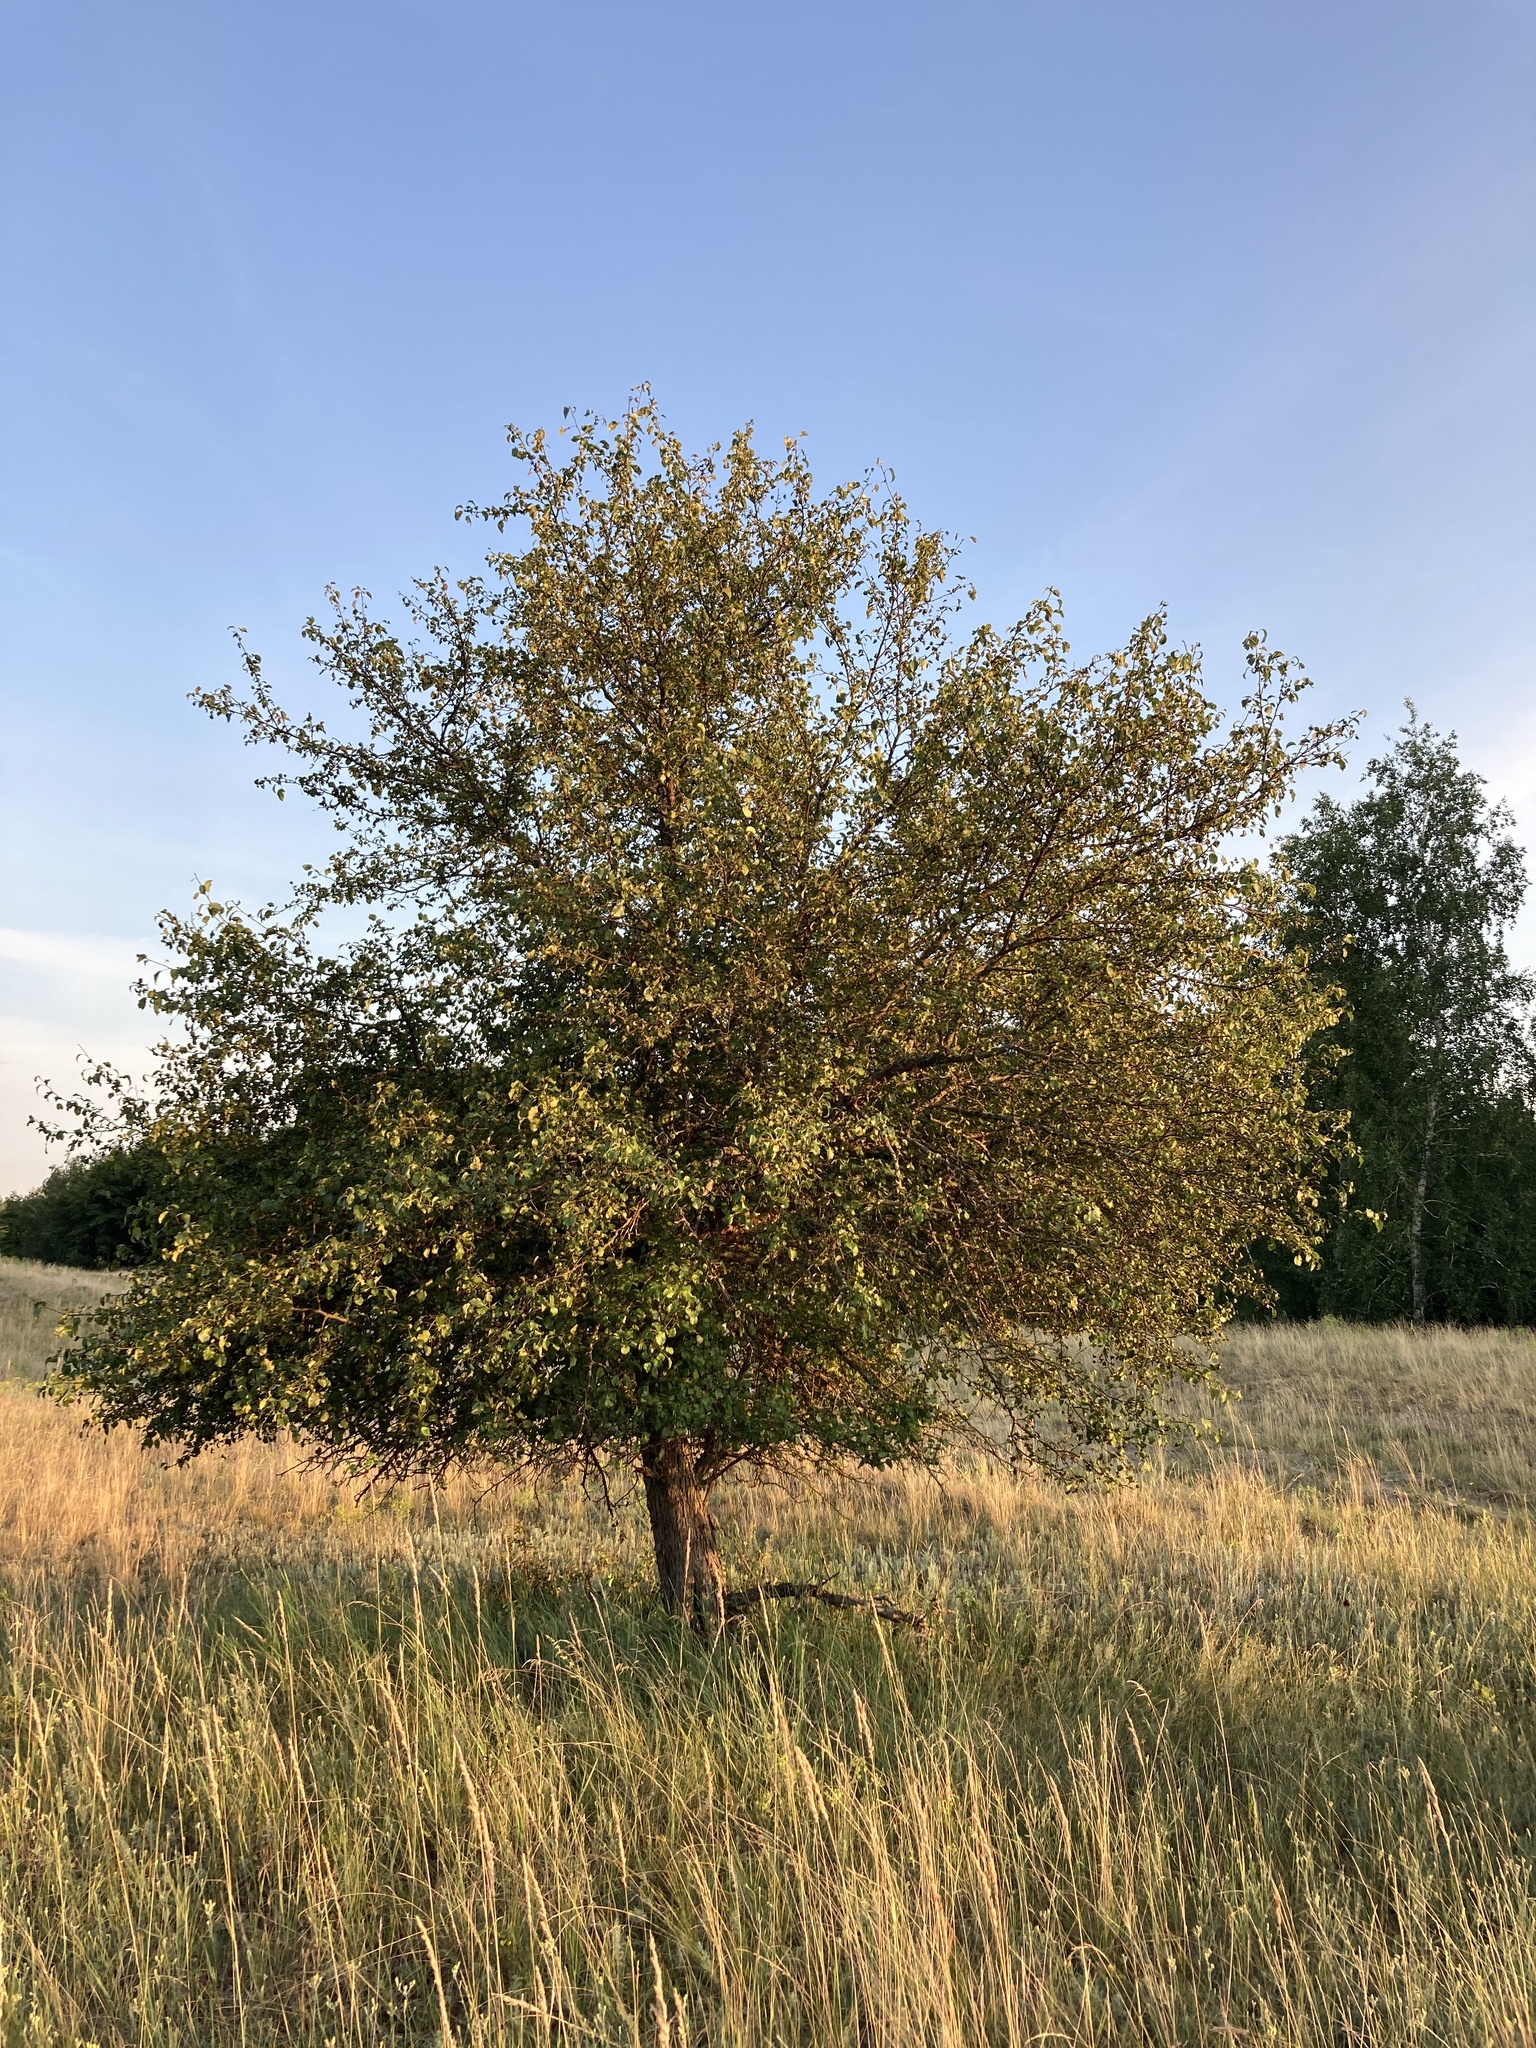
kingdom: Plantae
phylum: Tracheophyta
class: Magnoliopsida
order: Rosales
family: Rosaceae
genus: Pyrus
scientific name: Pyrus communis
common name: Pear
